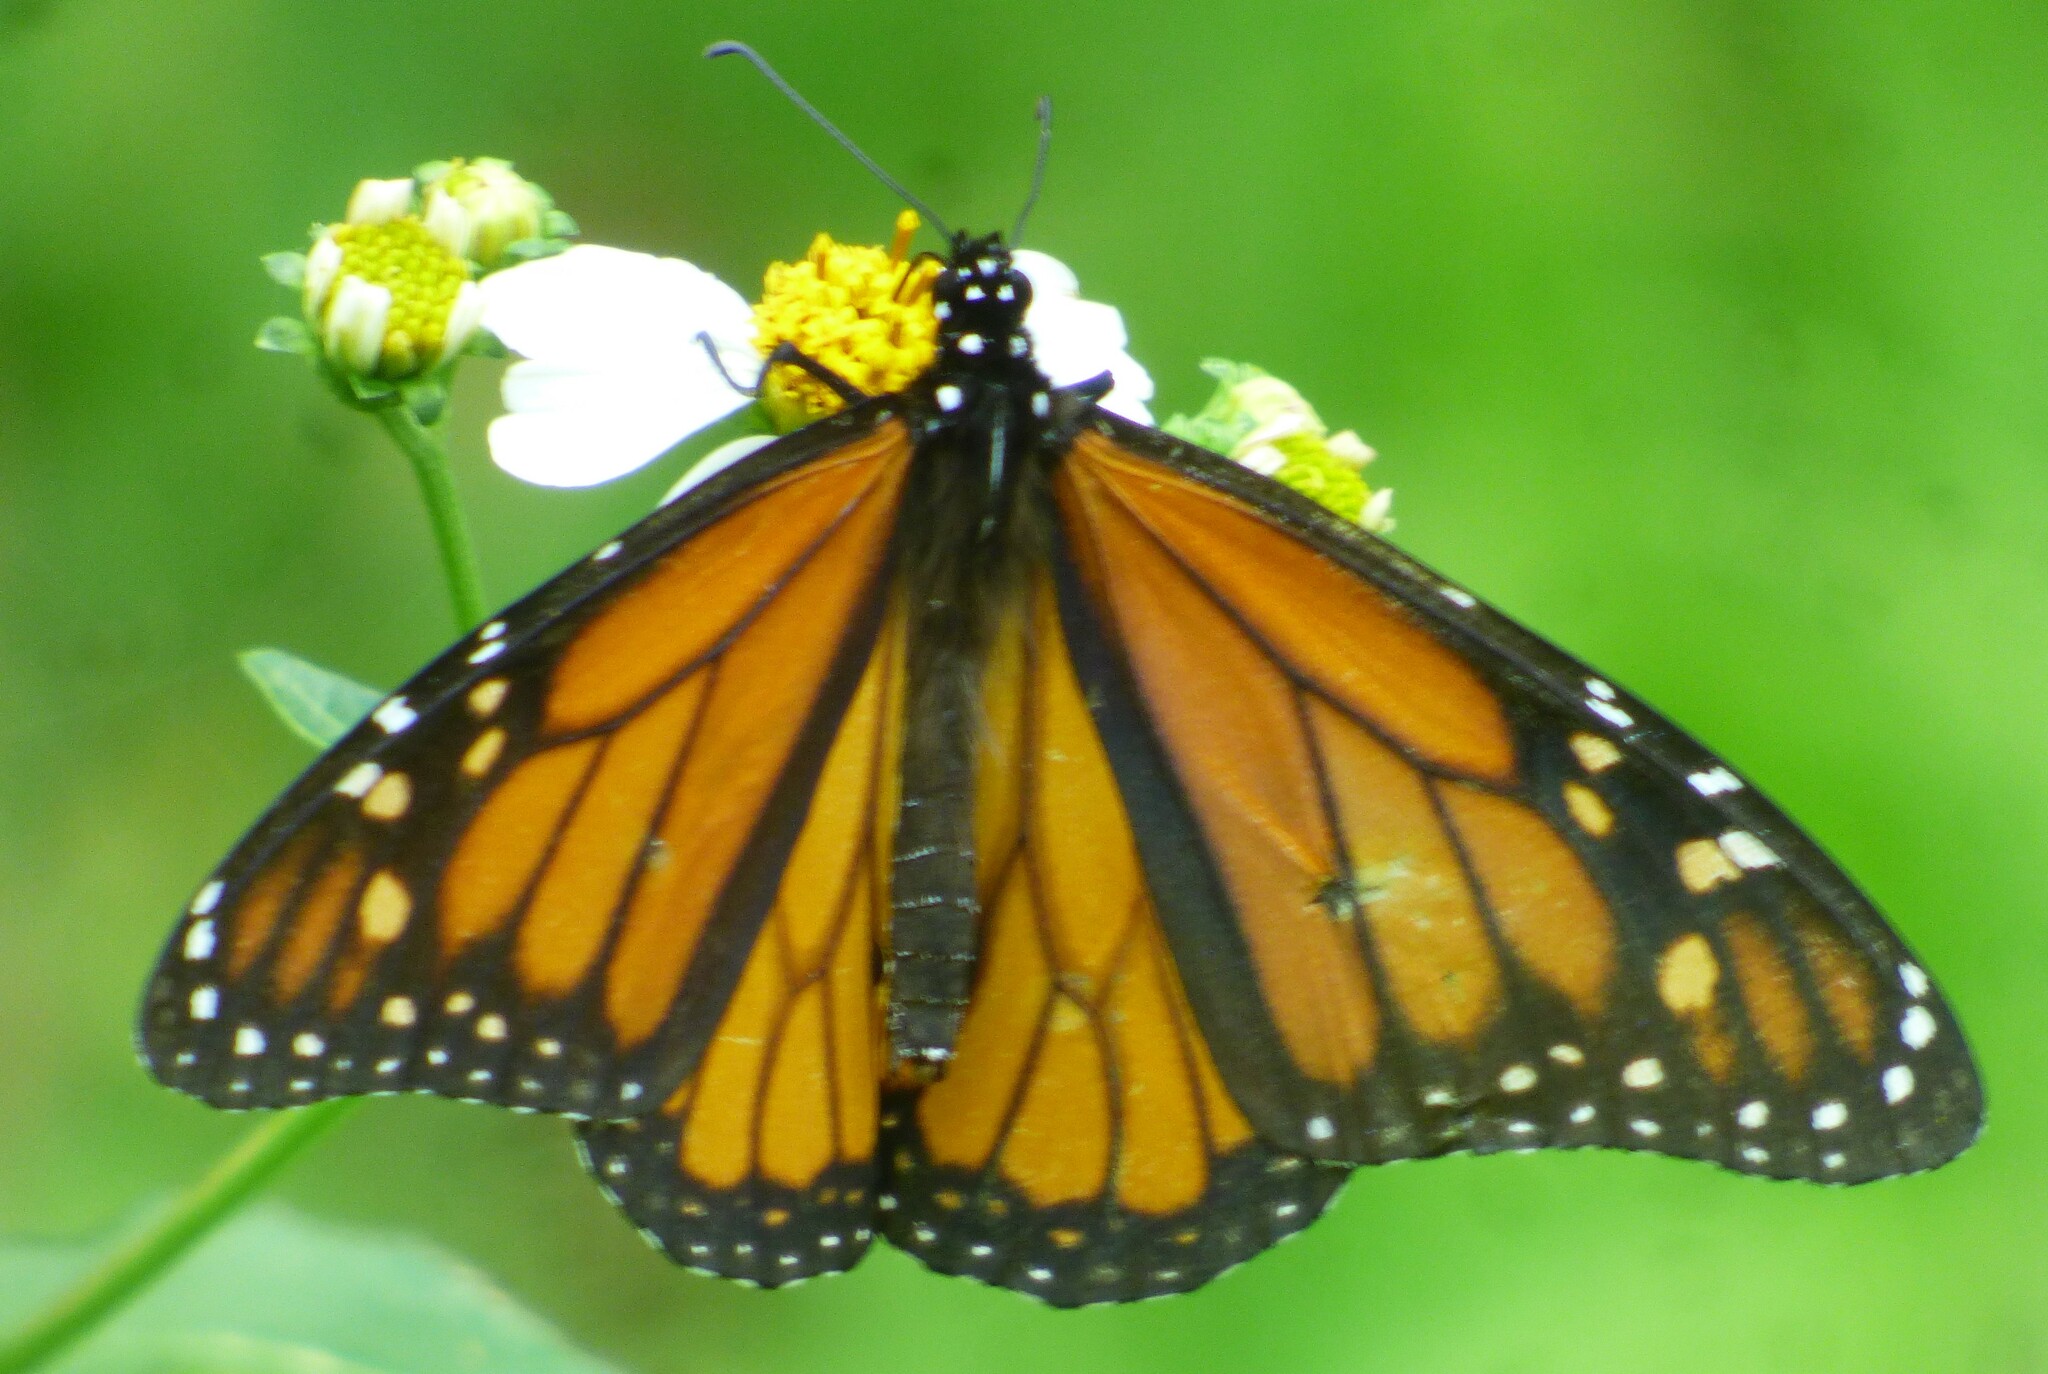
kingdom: Animalia
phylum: Arthropoda
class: Insecta
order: Lepidoptera
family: Nymphalidae
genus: Danaus
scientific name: Danaus plexippus
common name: Monarch
